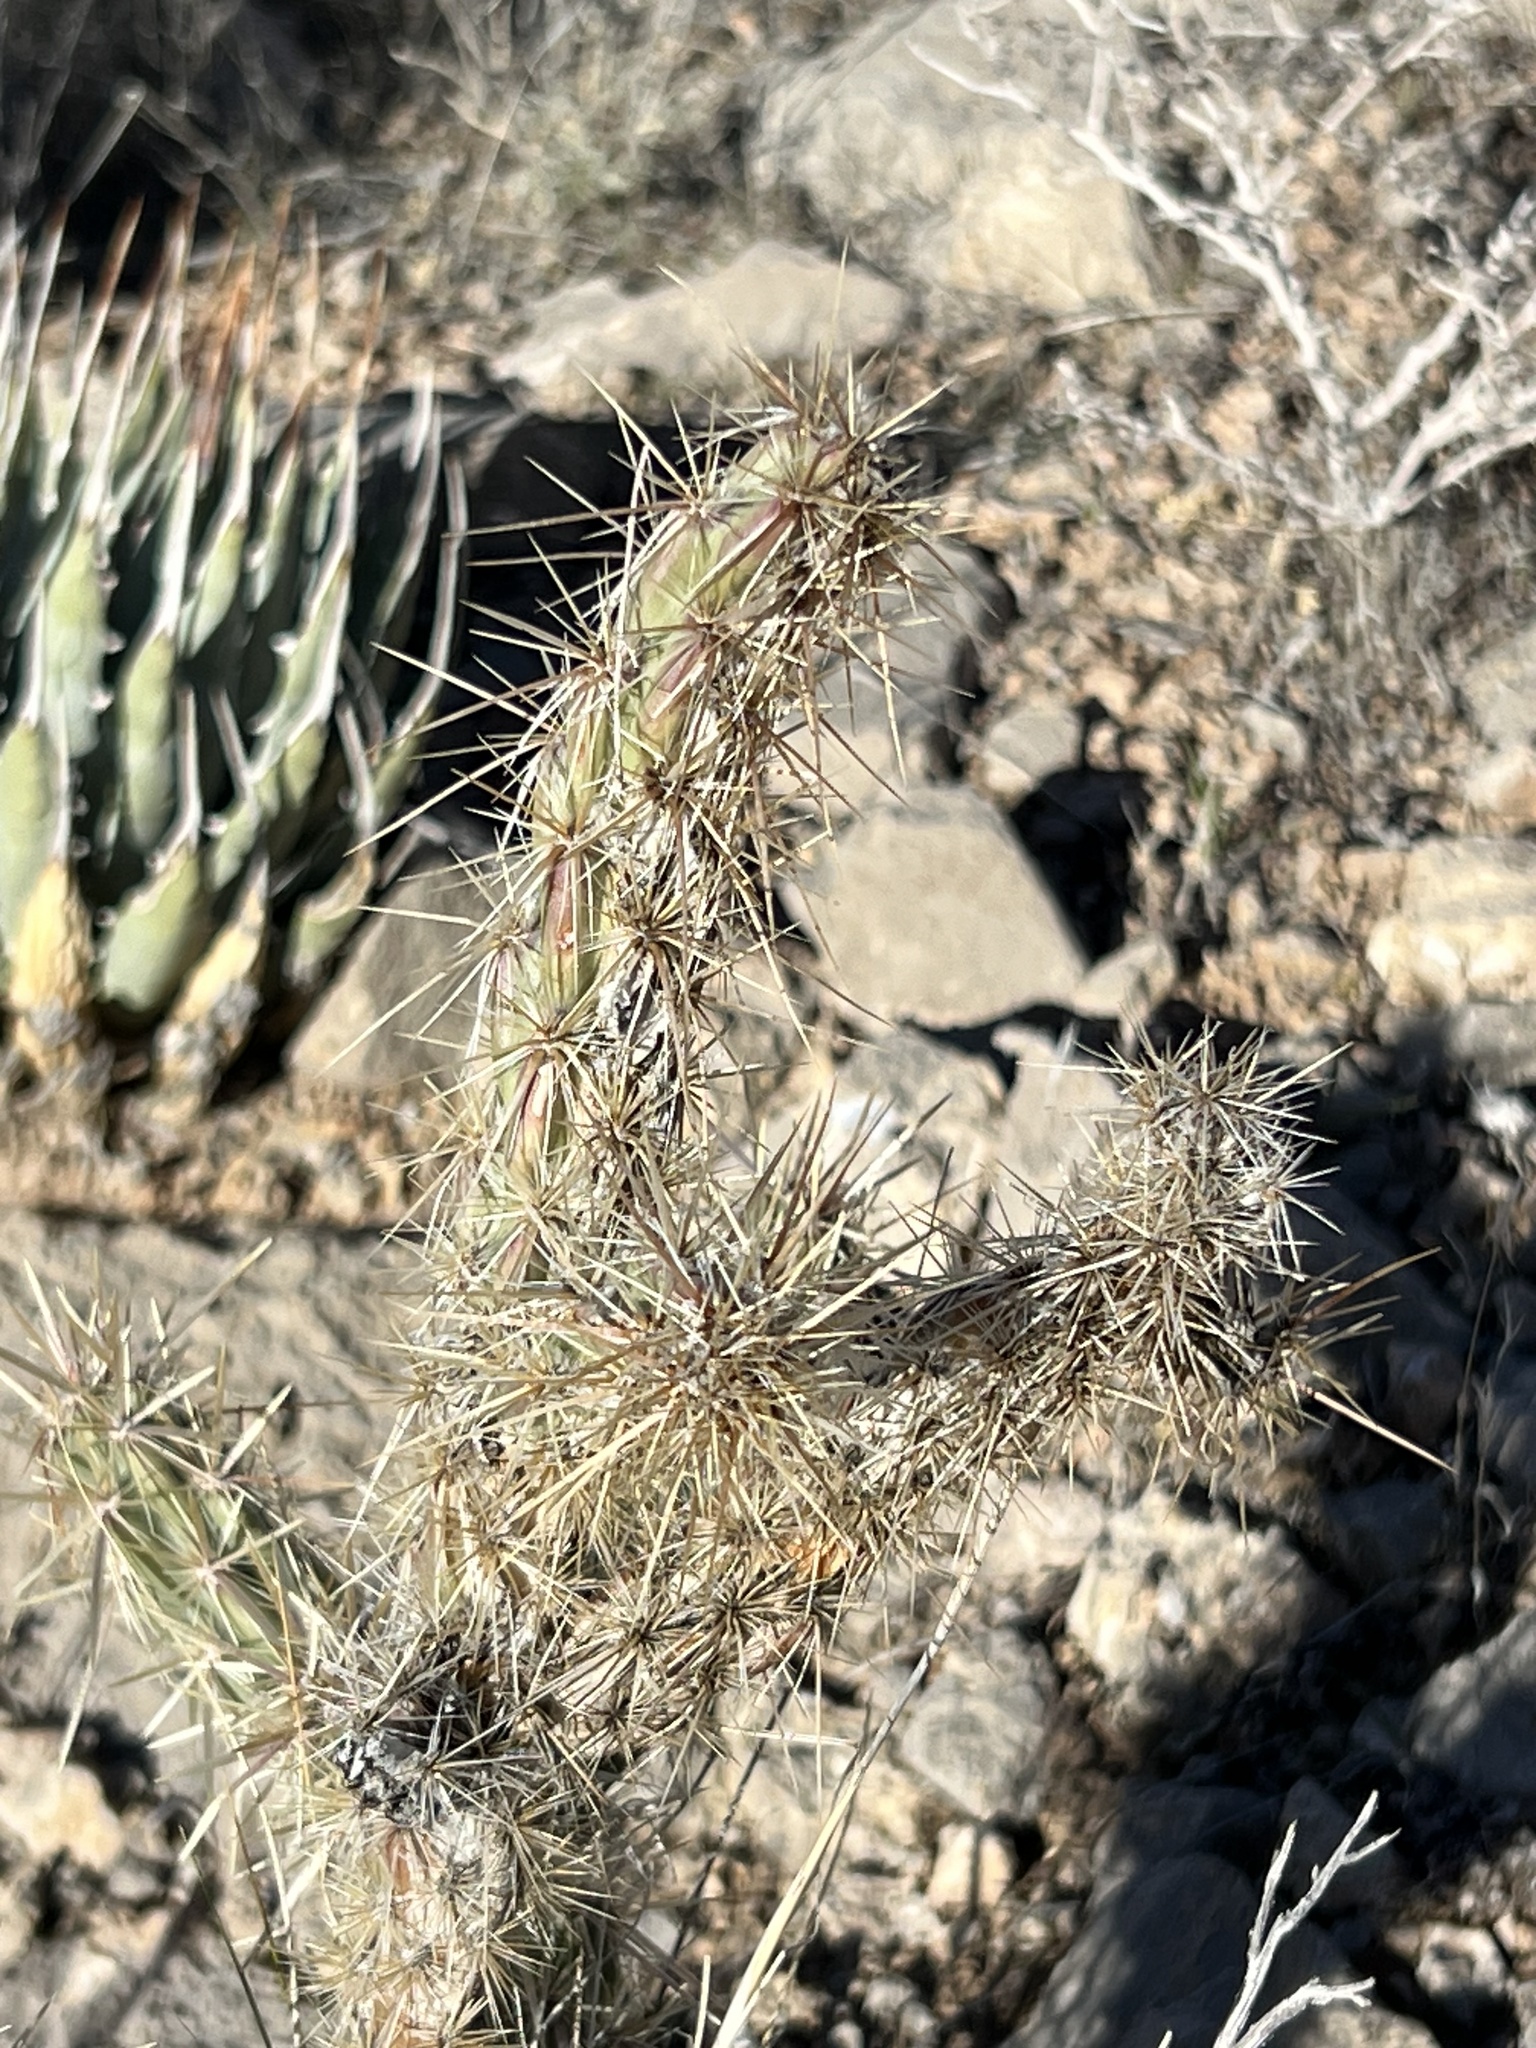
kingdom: Plantae
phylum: Tracheophyta
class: Magnoliopsida
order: Caryophyllales
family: Cactaceae
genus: Cylindropuntia
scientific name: Cylindropuntia acanthocarpa
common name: Buckhorn cholla
